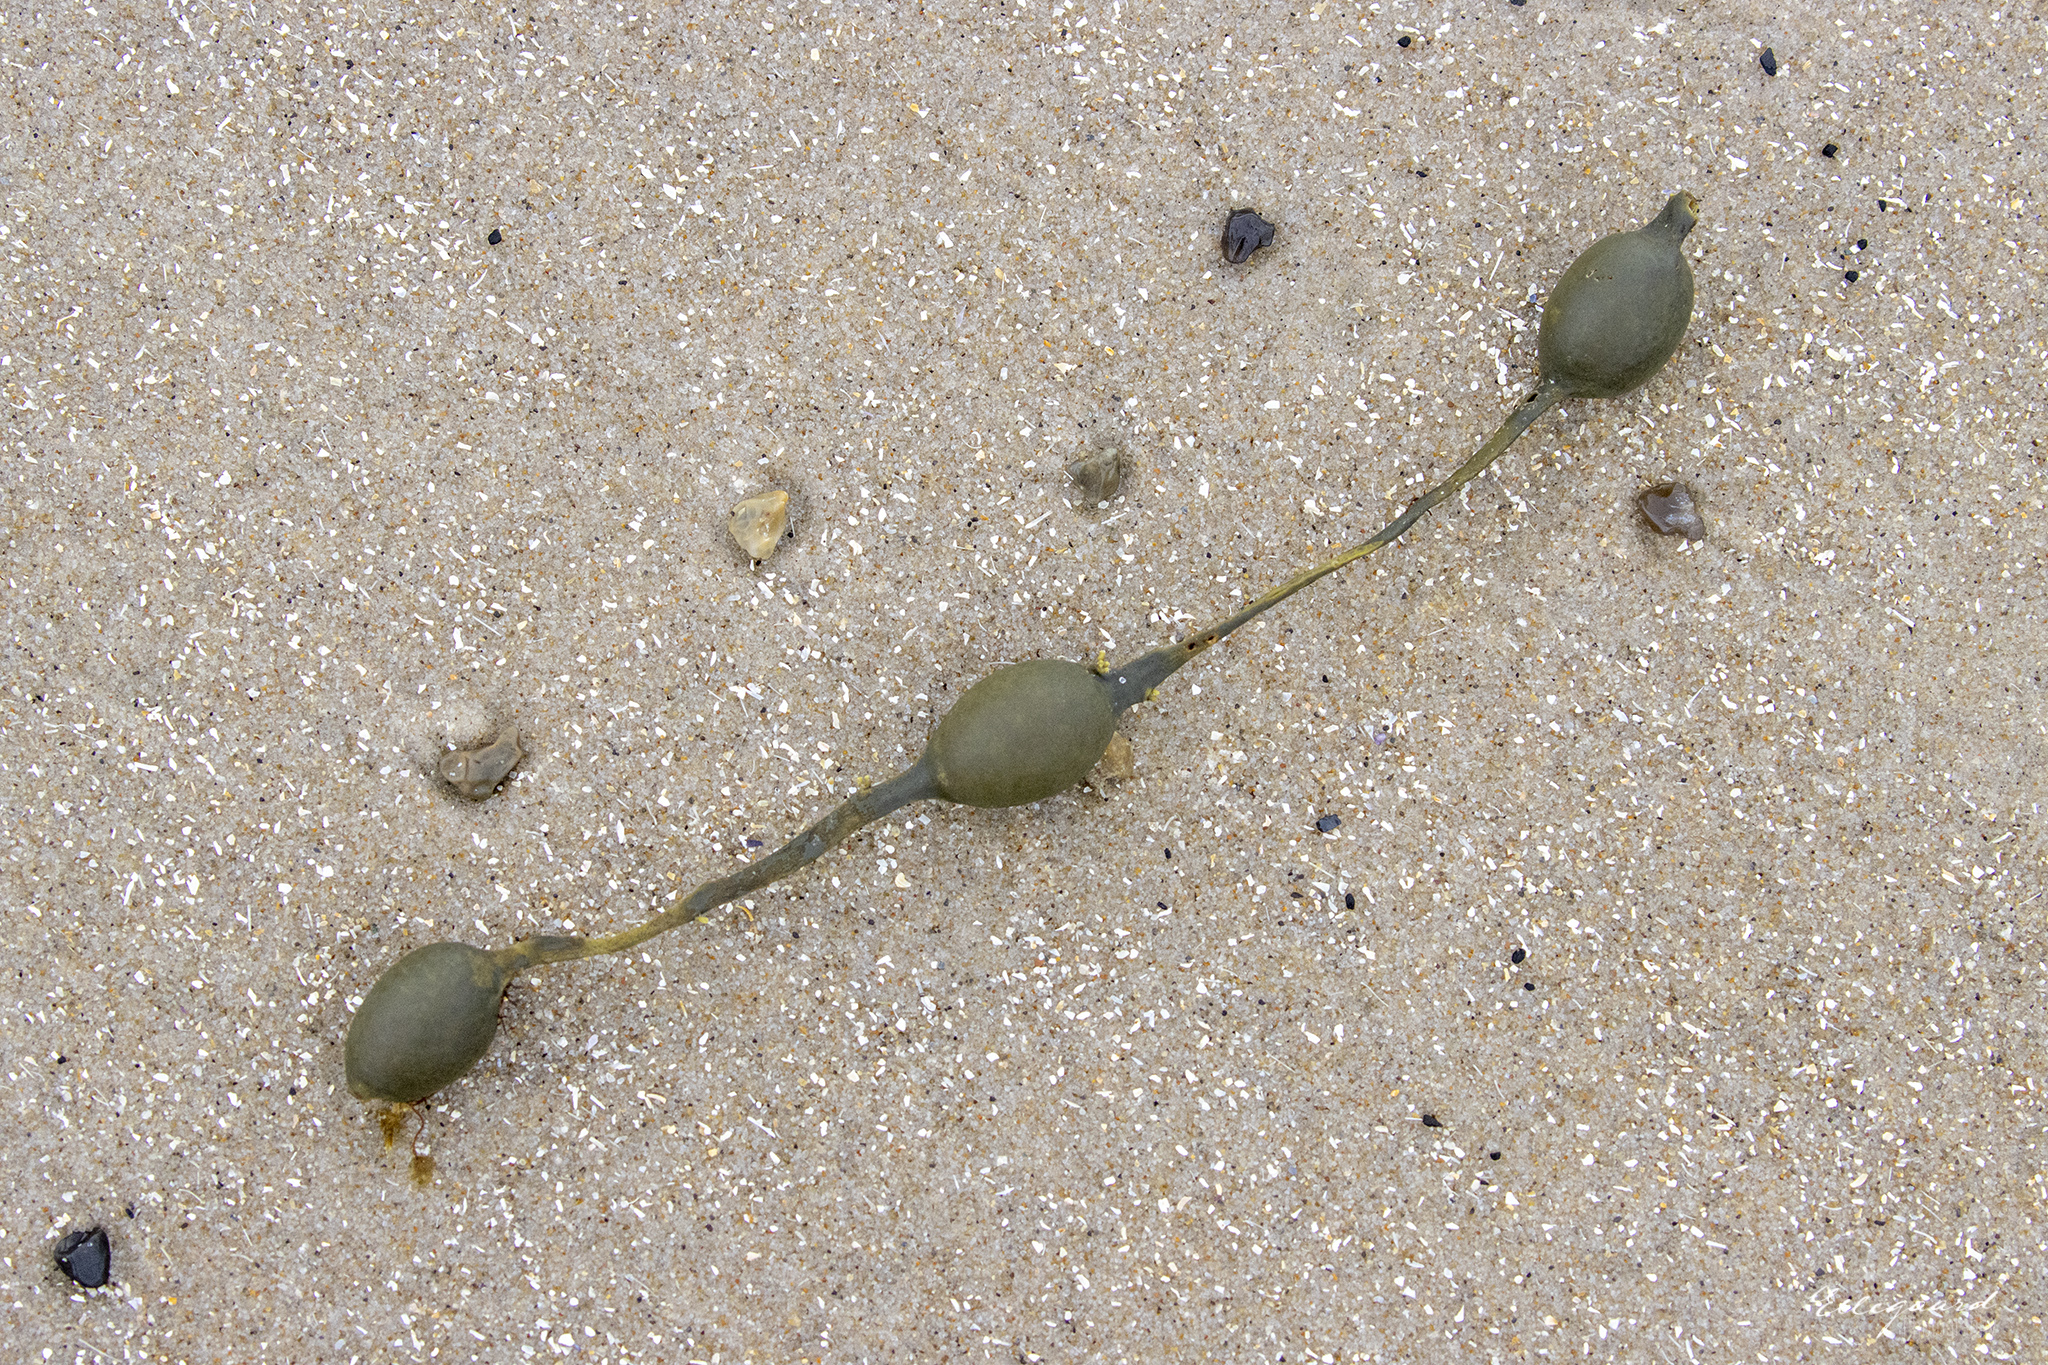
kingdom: Chromista
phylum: Ochrophyta
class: Phaeophyceae
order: Fucales
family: Fucaceae
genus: Ascophyllum
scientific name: Ascophyllum nodosum
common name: Knotted wrack
